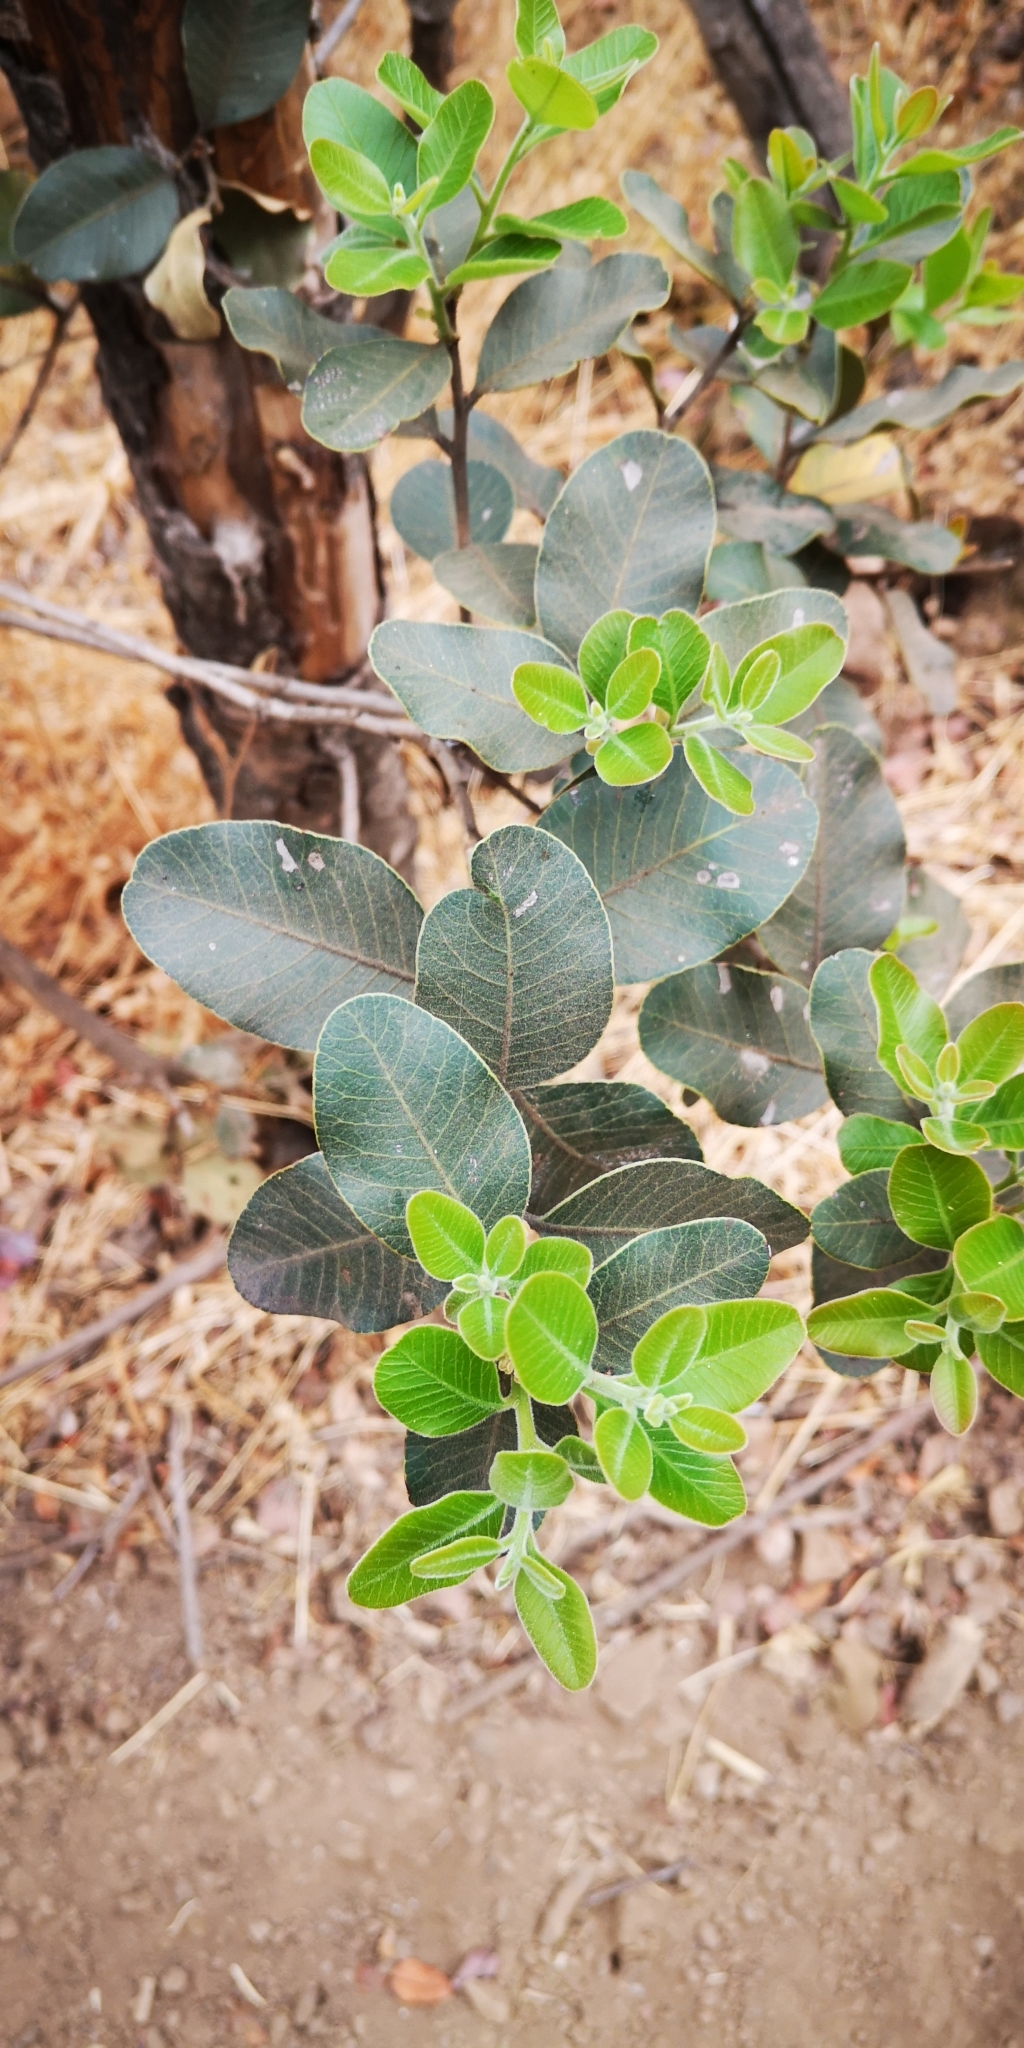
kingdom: Plantae
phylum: Tracheophyta
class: Magnoliopsida
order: Sapindales
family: Anacardiaceae
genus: Lithraea
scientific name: Lithraea caustica
